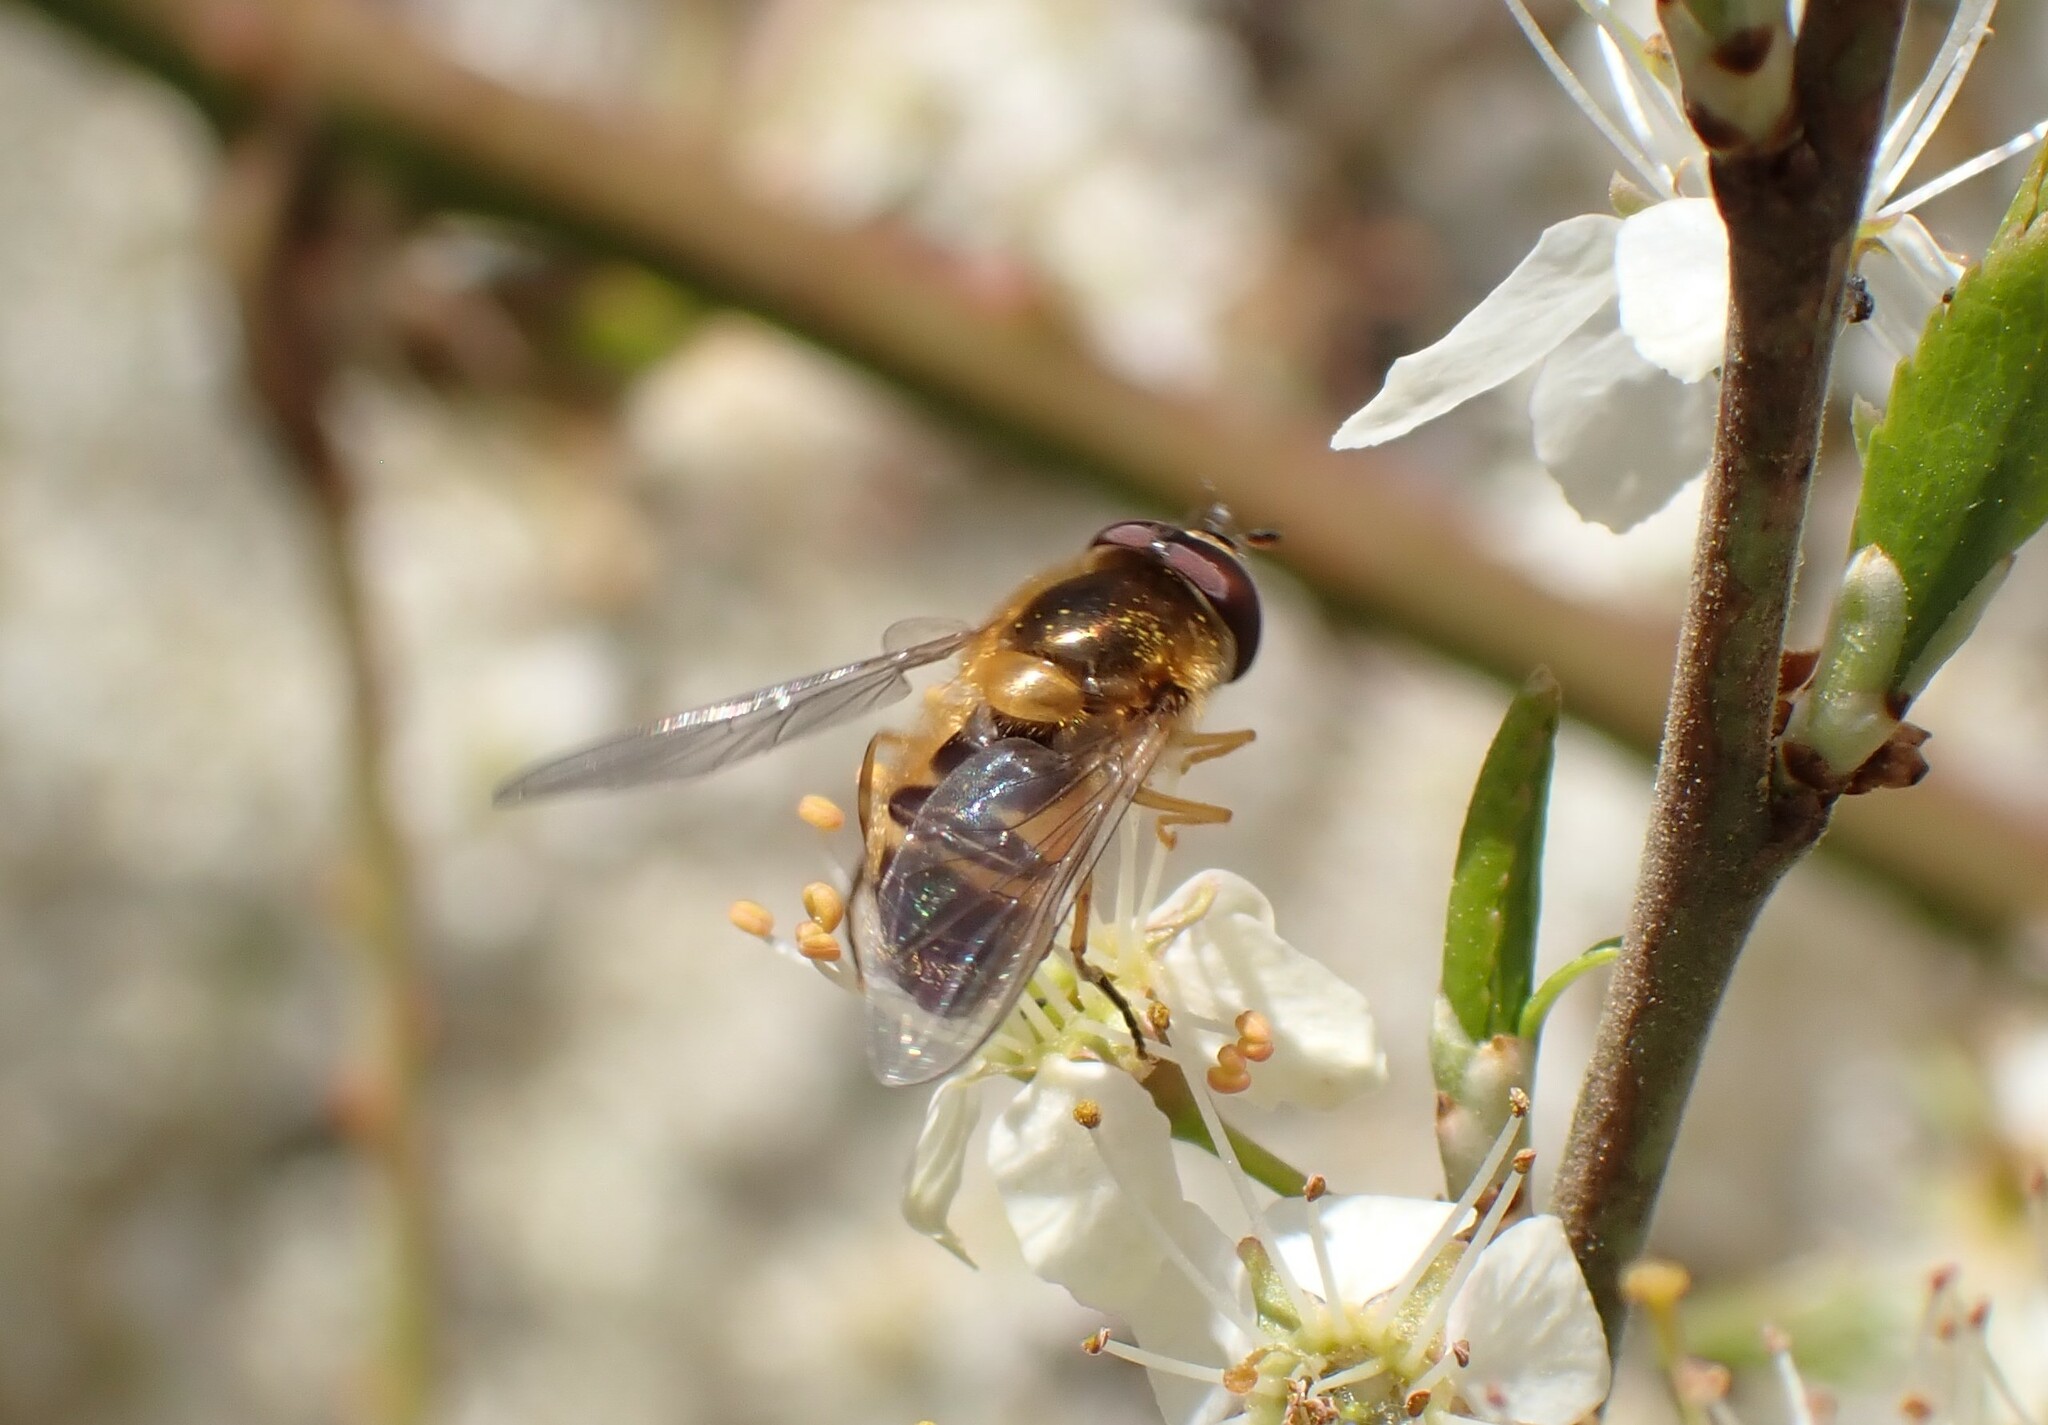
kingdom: Animalia
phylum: Arthropoda
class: Insecta
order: Diptera
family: Syrphidae
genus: Epistrophe
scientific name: Epistrophe eligans
